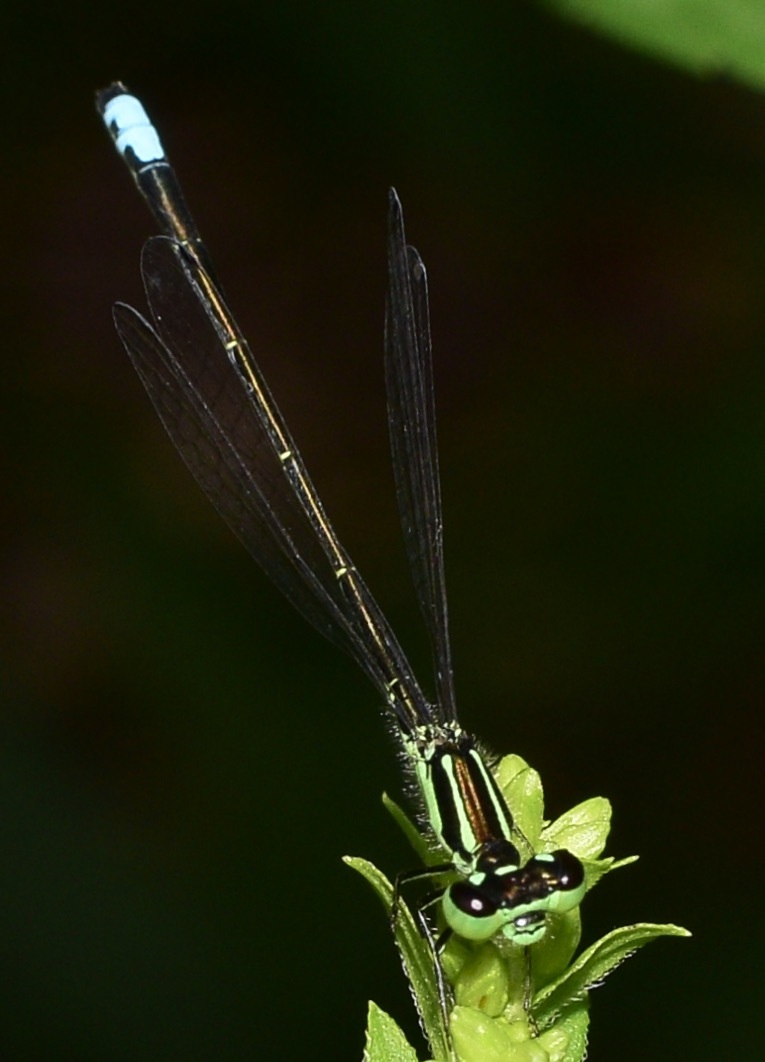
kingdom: Animalia
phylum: Arthropoda
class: Insecta
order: Odonata
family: Coenagrionidae
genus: Ischnura
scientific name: Ischnura verticalis
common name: Eastern forktail
